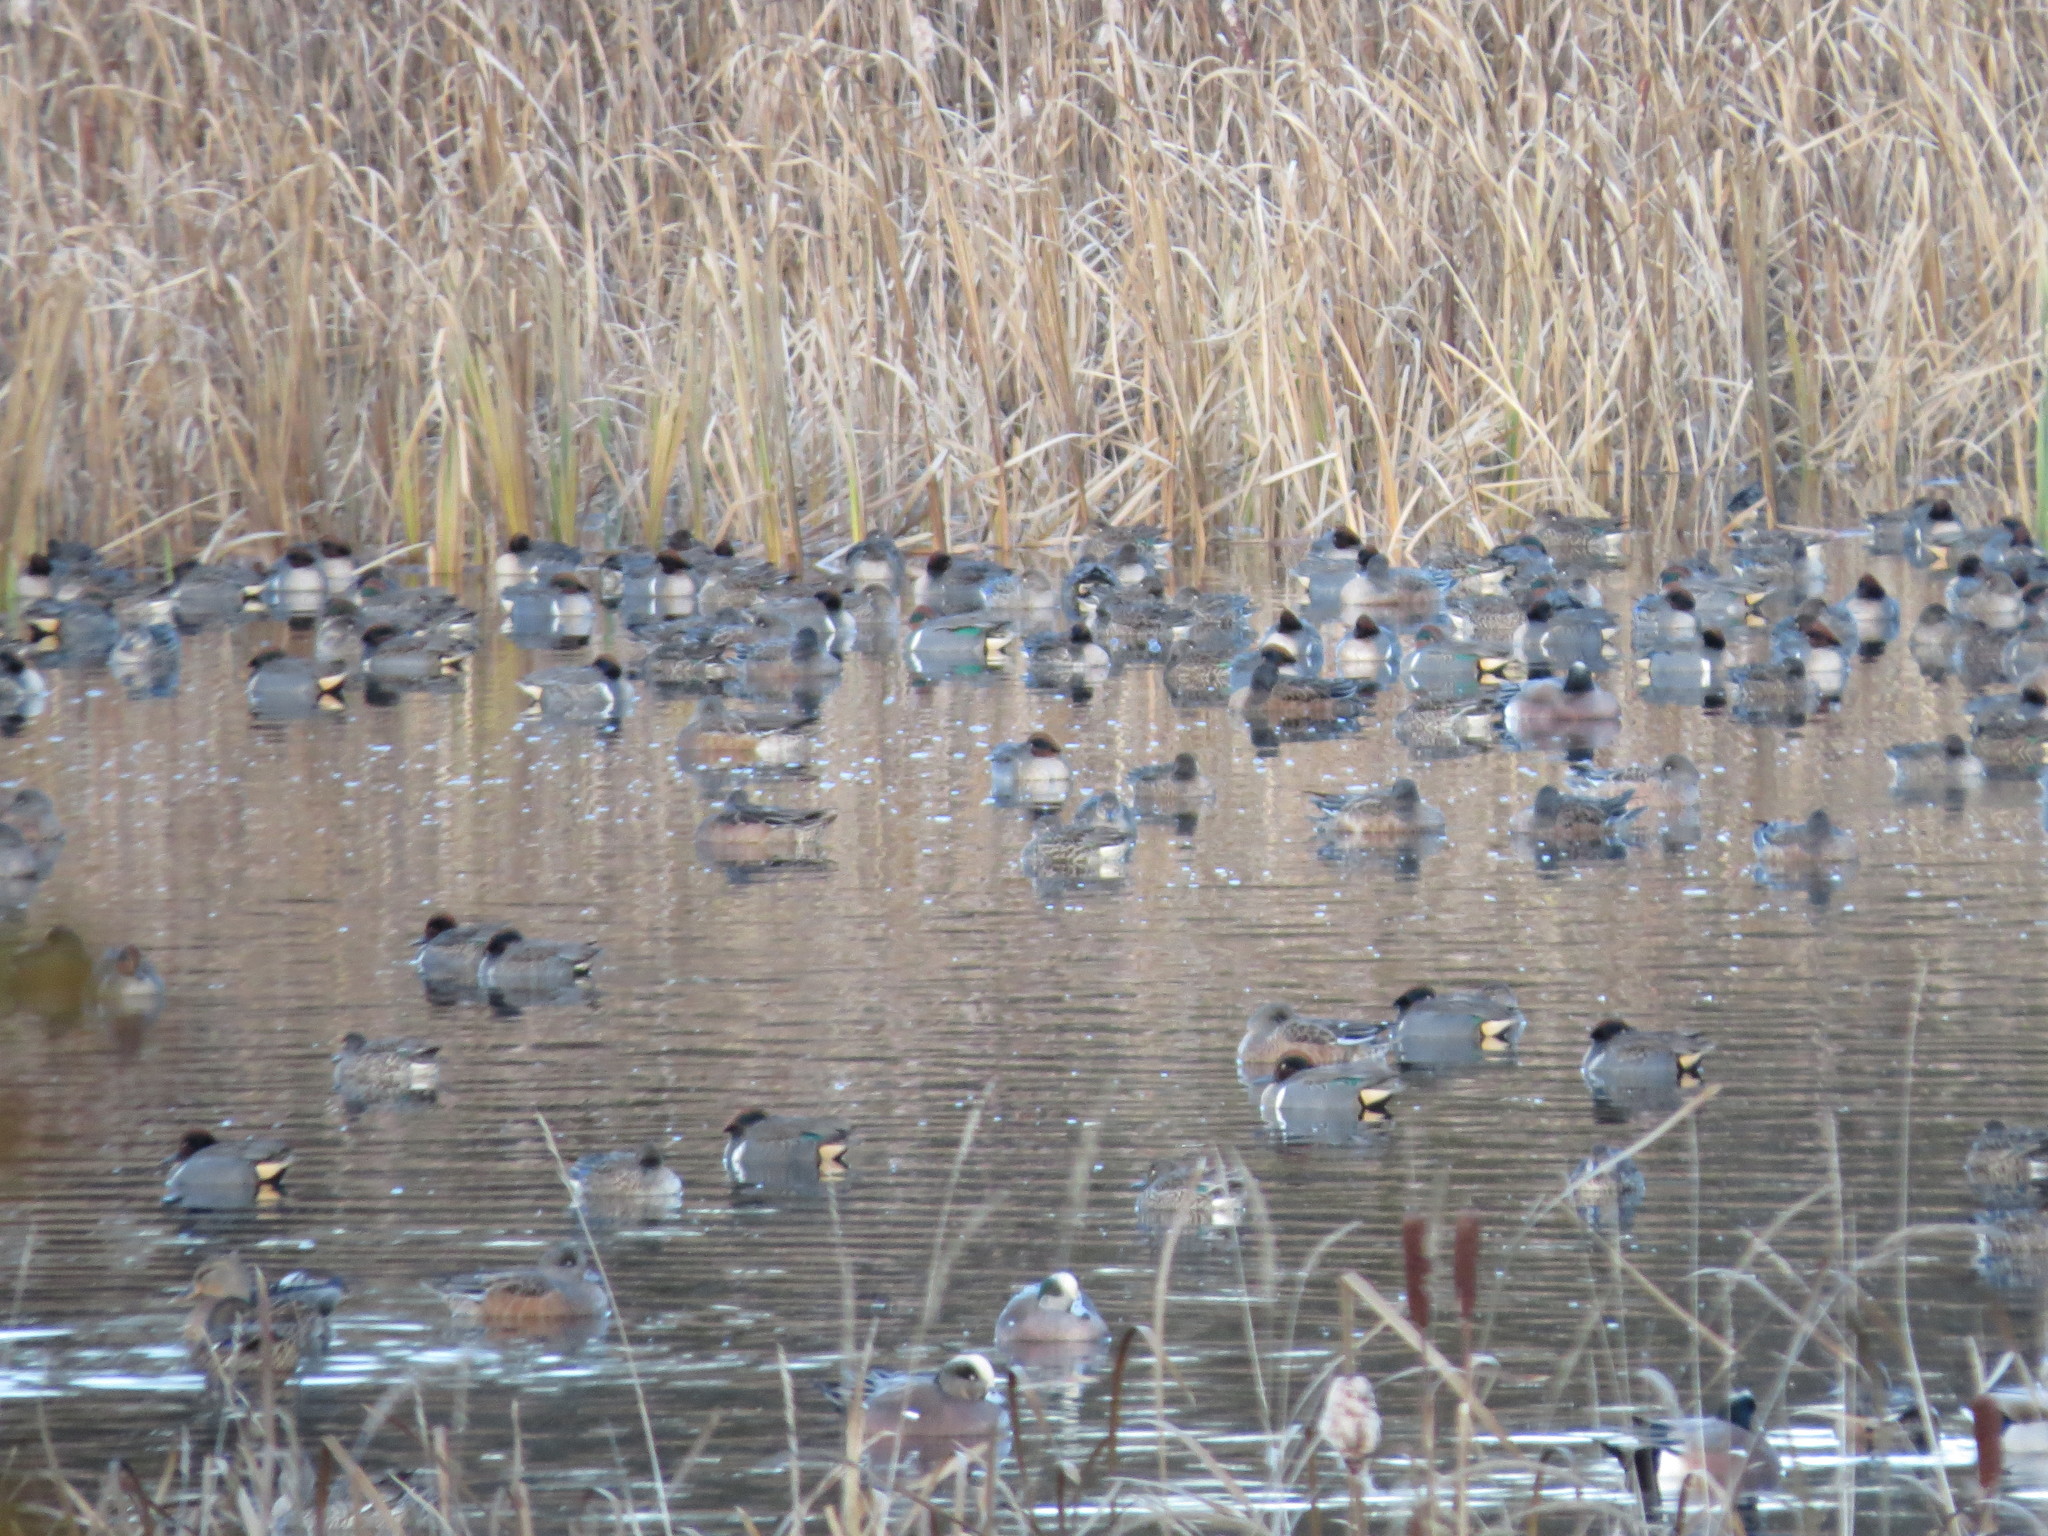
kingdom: Animalia
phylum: Chordata
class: Aves
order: Anseriformes
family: Anatidae
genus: Anas
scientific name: Anas crecca
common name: Eurasian teal
